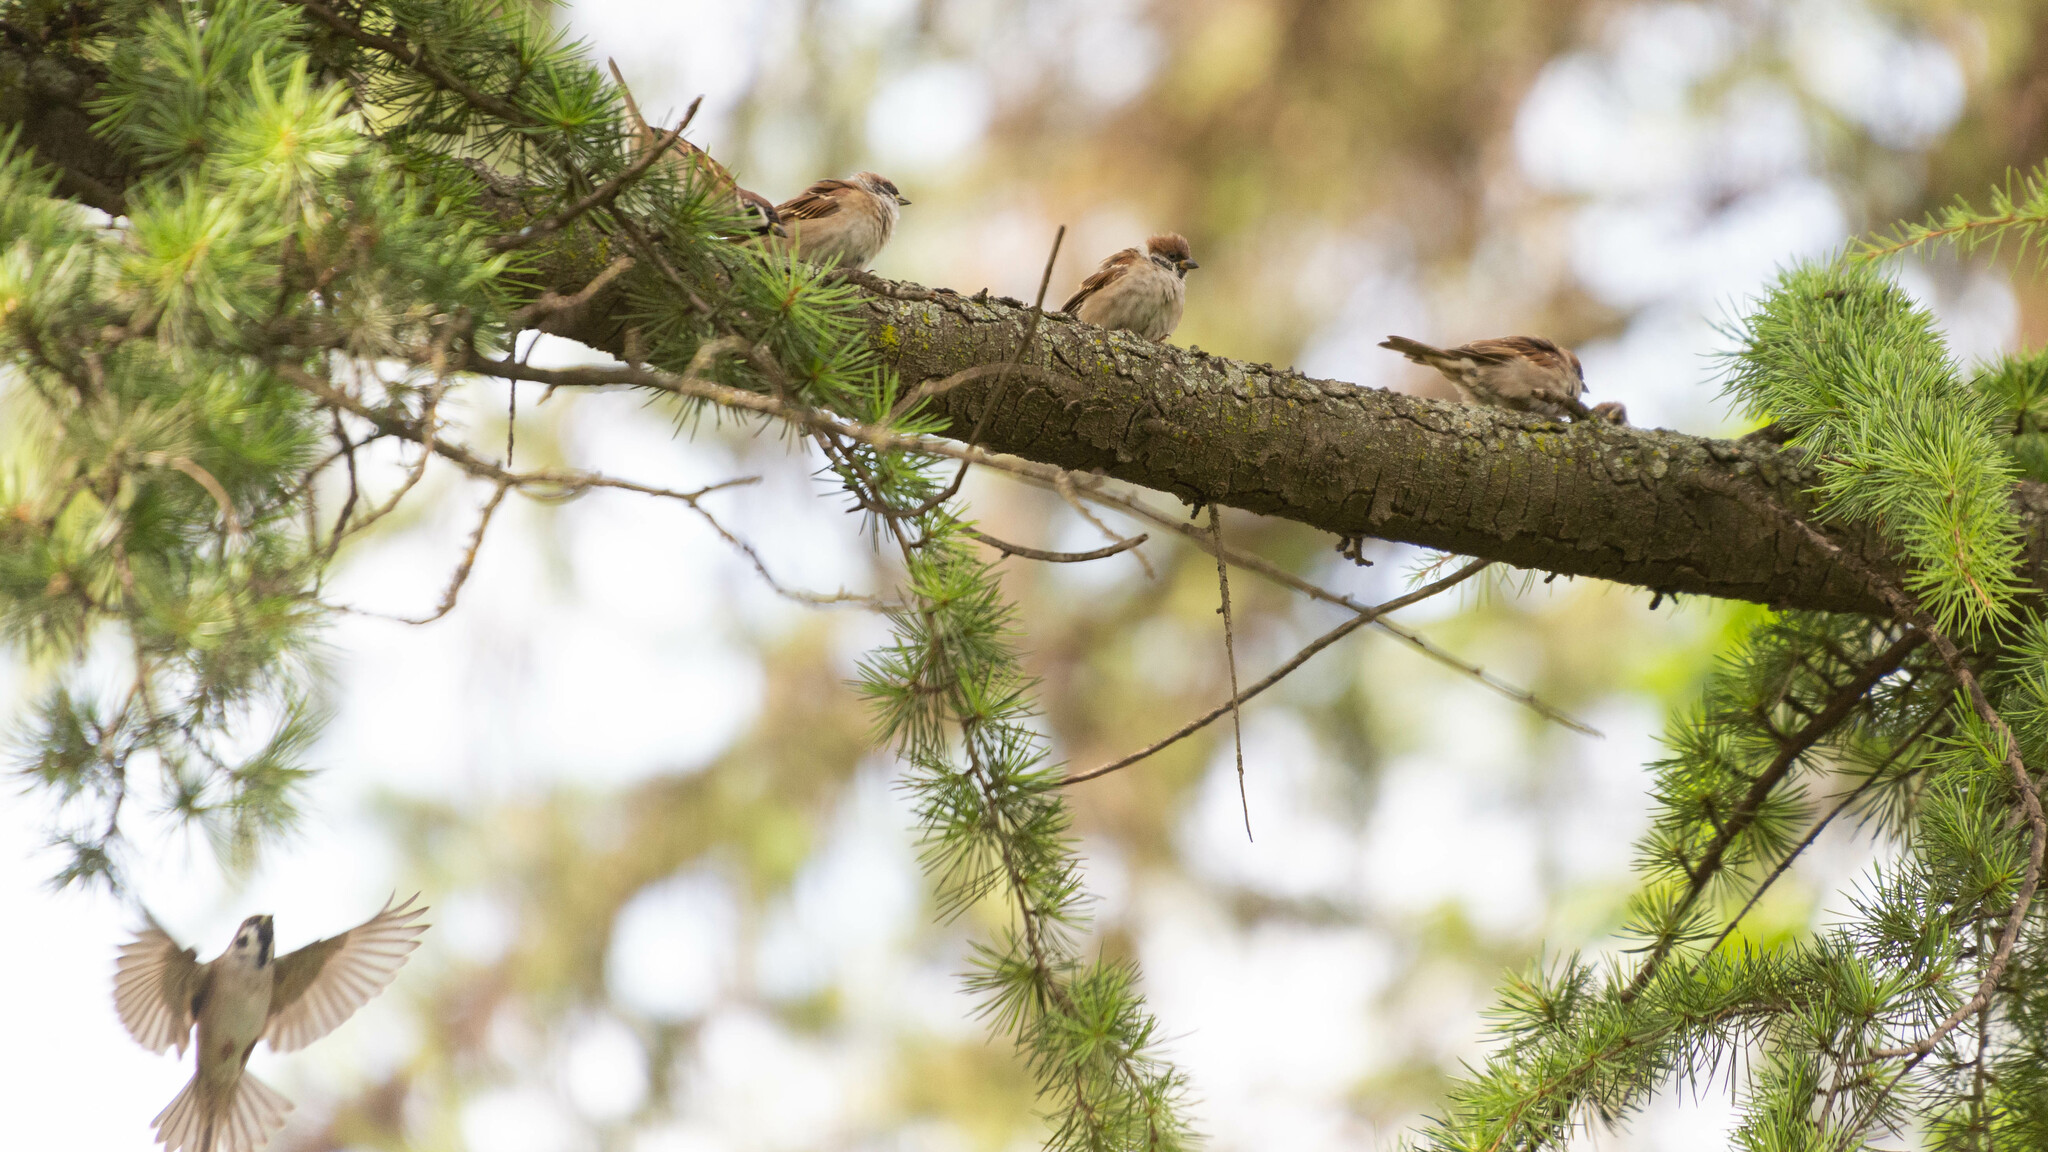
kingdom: Animalia
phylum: Chordata
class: Aves
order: Passeriformes
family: Passeridae
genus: Passer
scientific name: Passer montanus
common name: Eurasian tree sparrow
